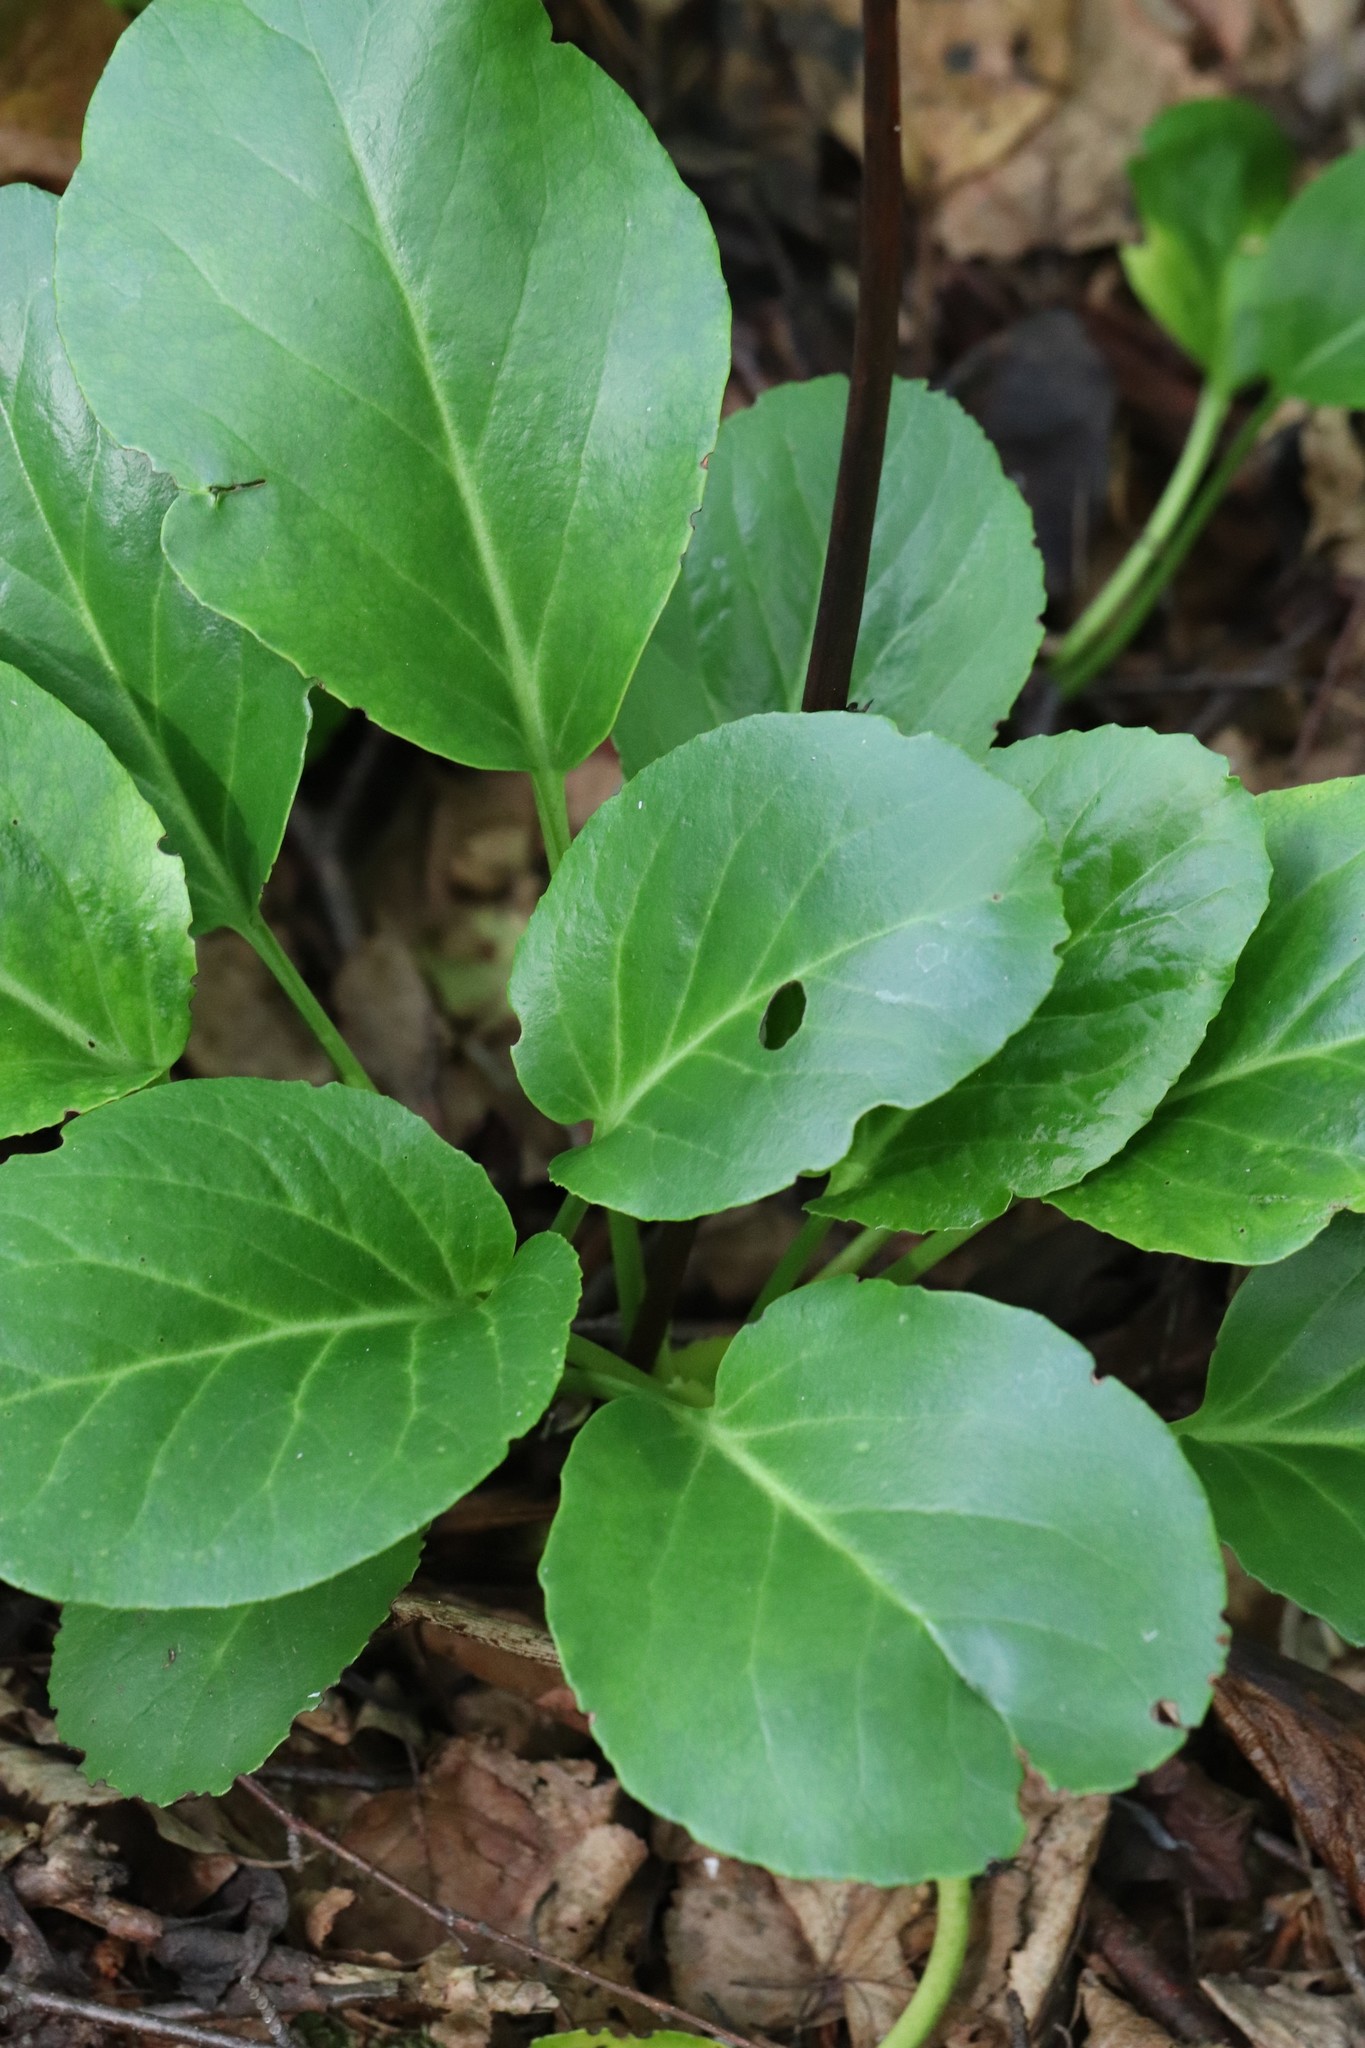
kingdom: Plantae
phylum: Tracheophyta
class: Magnoliopsida
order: Saxifragales
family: Saxifragaceae
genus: Bergenia
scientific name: Bergenia crassifolia
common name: Elephant-ears
